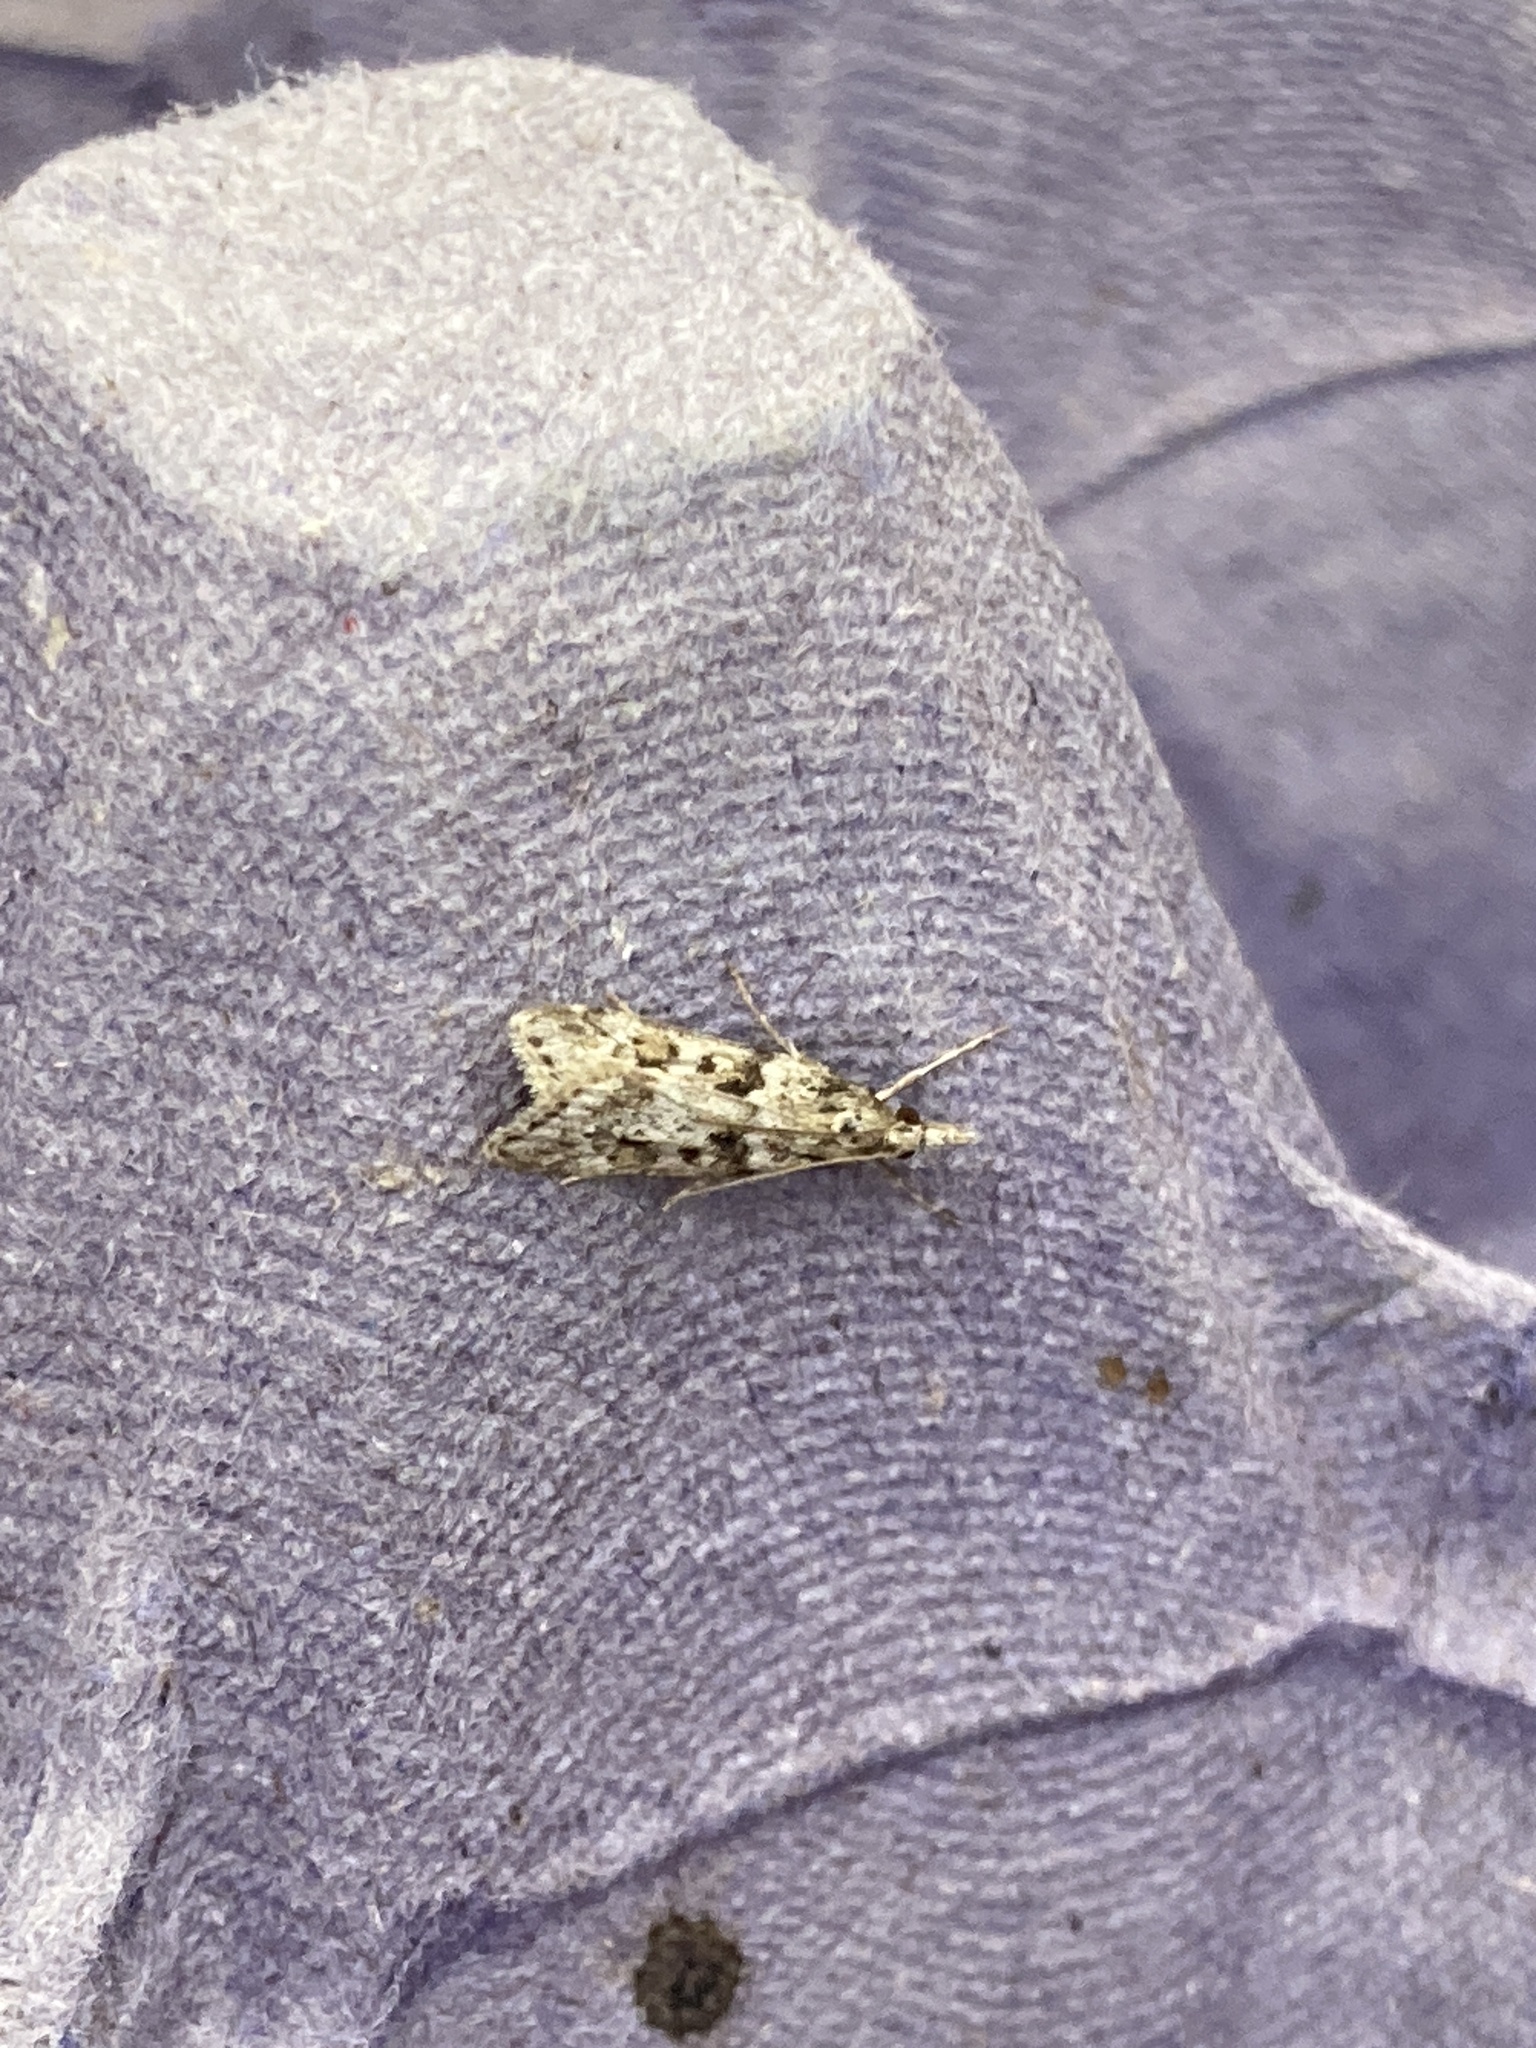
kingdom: Animalia
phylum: Arthropoda
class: Insecta
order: Lepidoptera
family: Crambidae
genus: Eudonia
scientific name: Eudonia angustea
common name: Narrow-winged grey
